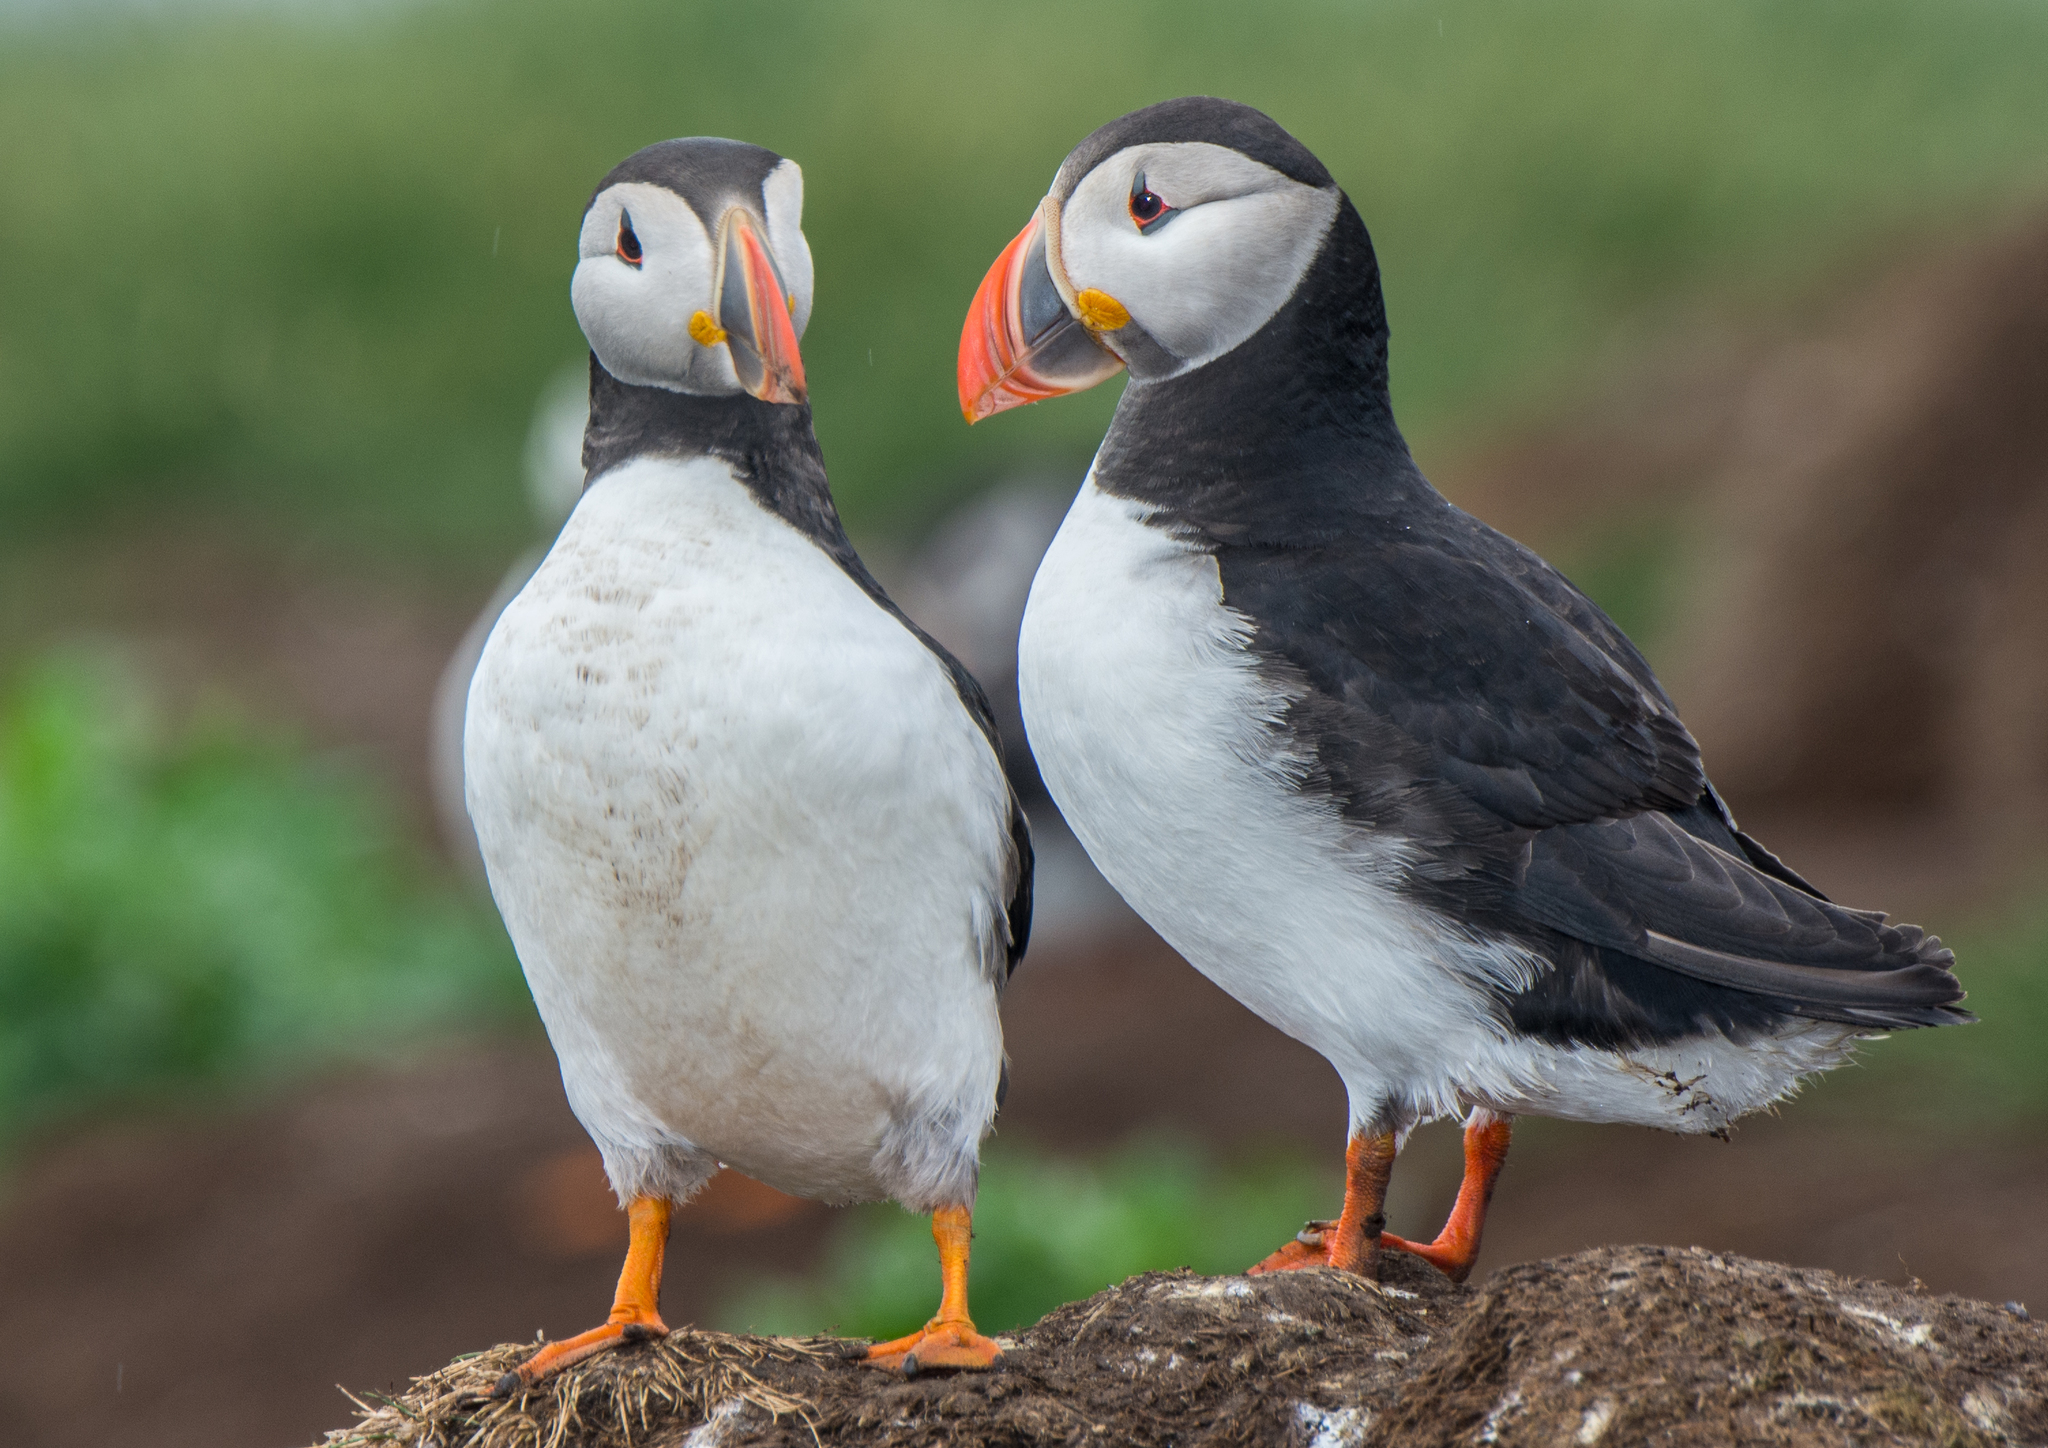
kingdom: Animalia
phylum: Chordata
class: Aves
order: Charadriiformes
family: Alcidae
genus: Fratercula
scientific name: Fratercula arctica
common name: Atlantic puffin
